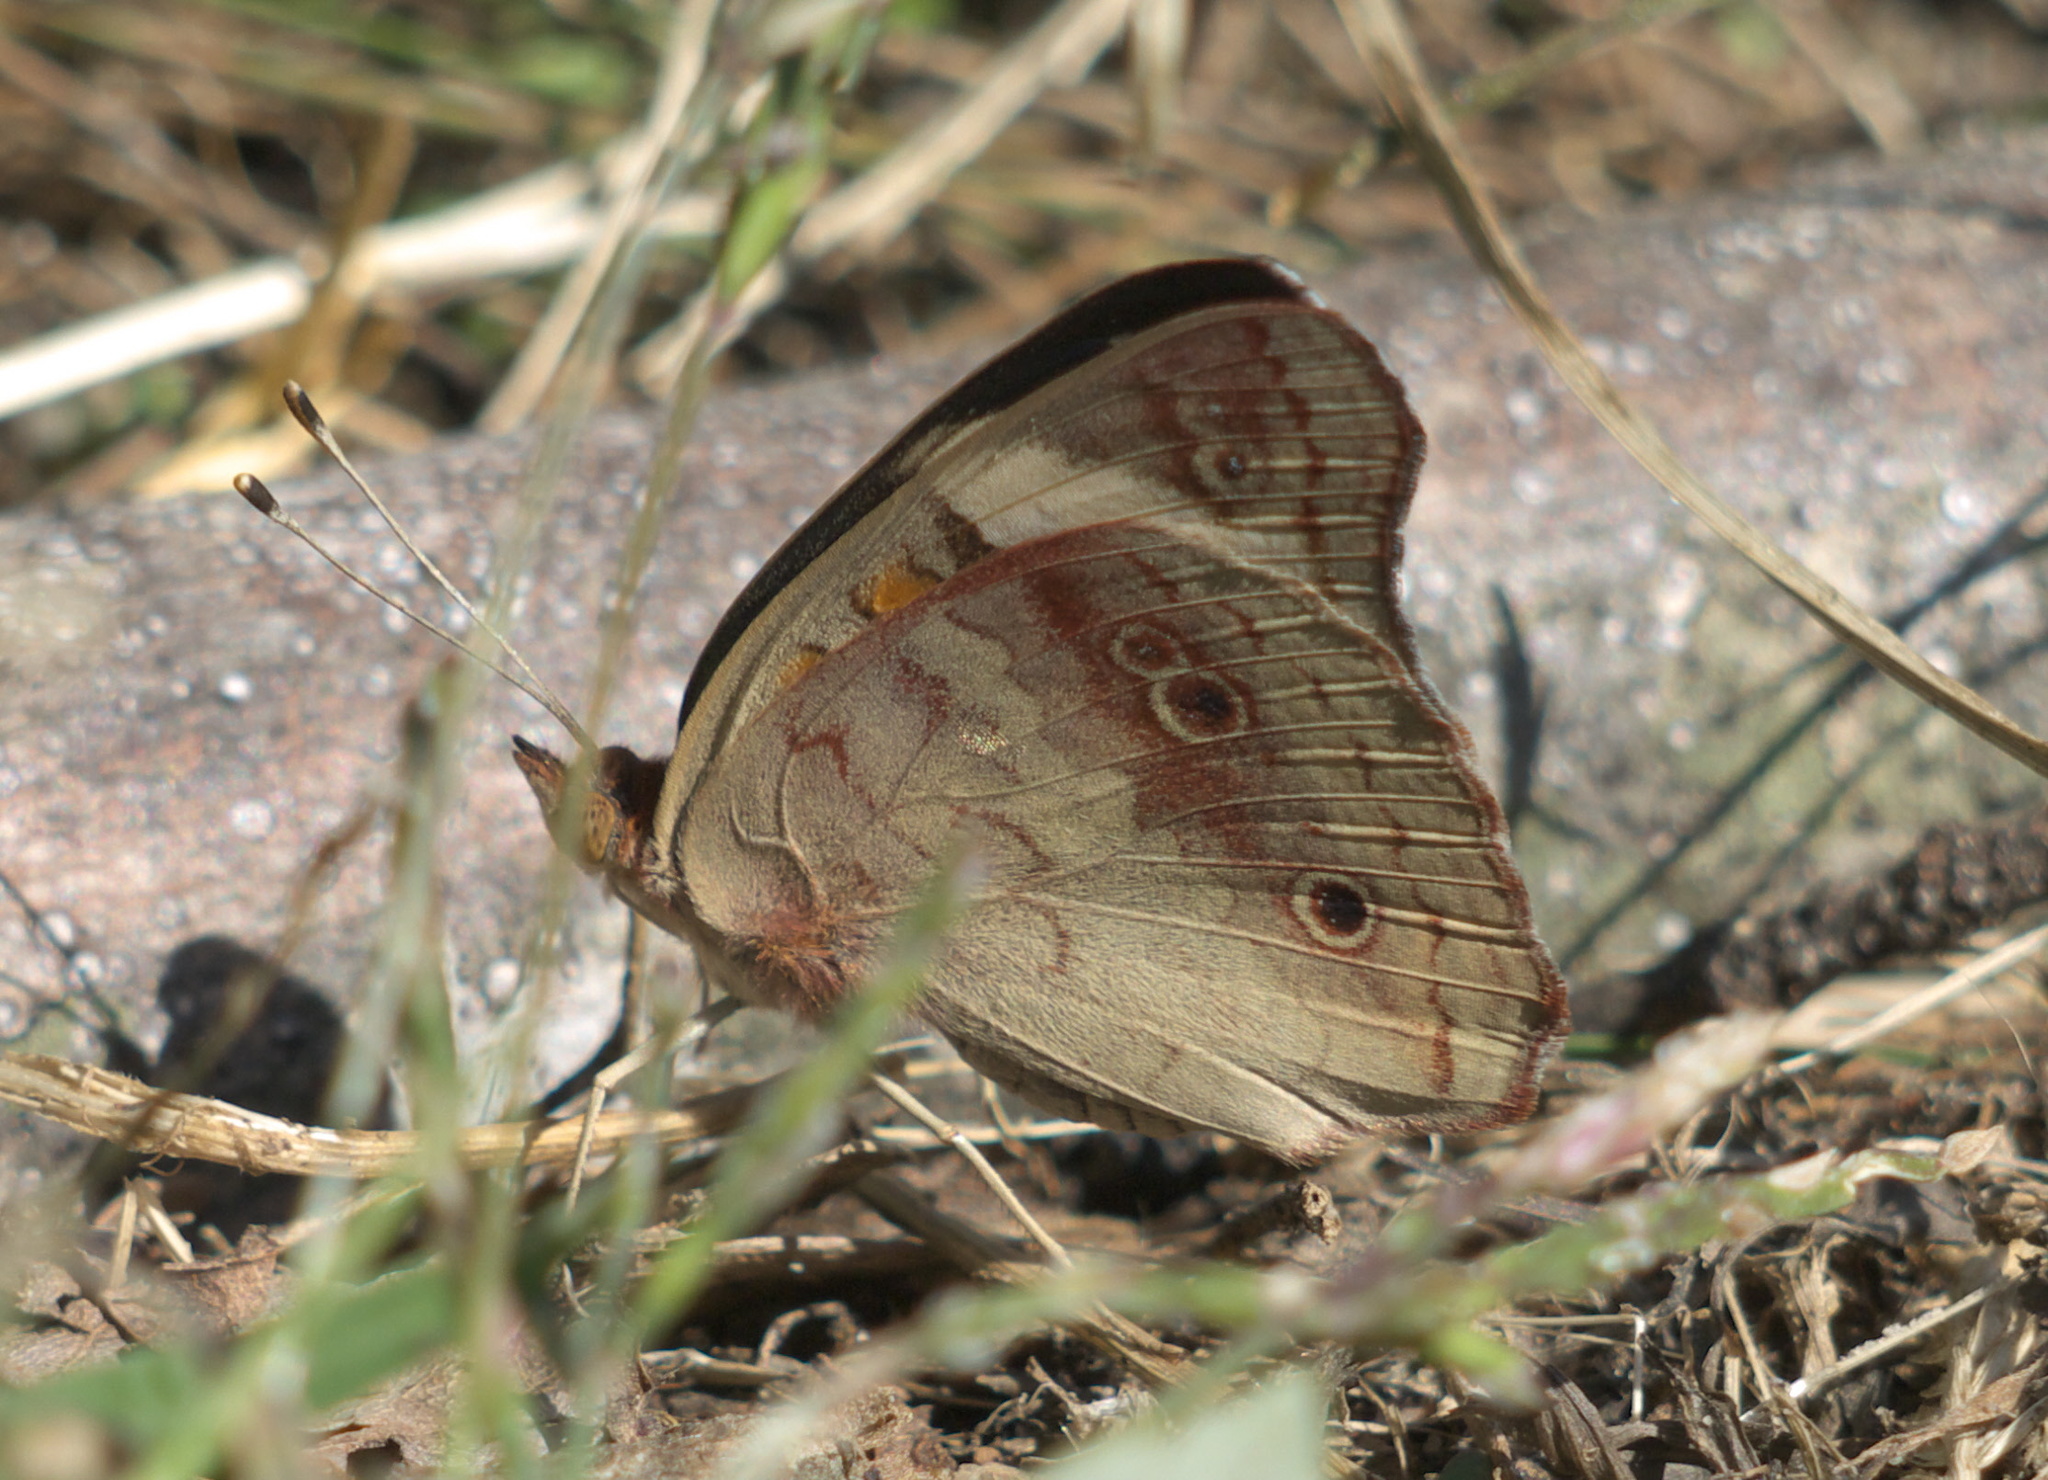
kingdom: Animalia
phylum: Arthropoda
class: Insecta
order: Lepidoptera
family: Nymphalidae
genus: Junonia
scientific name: Junonia coenia
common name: Common buckeye
